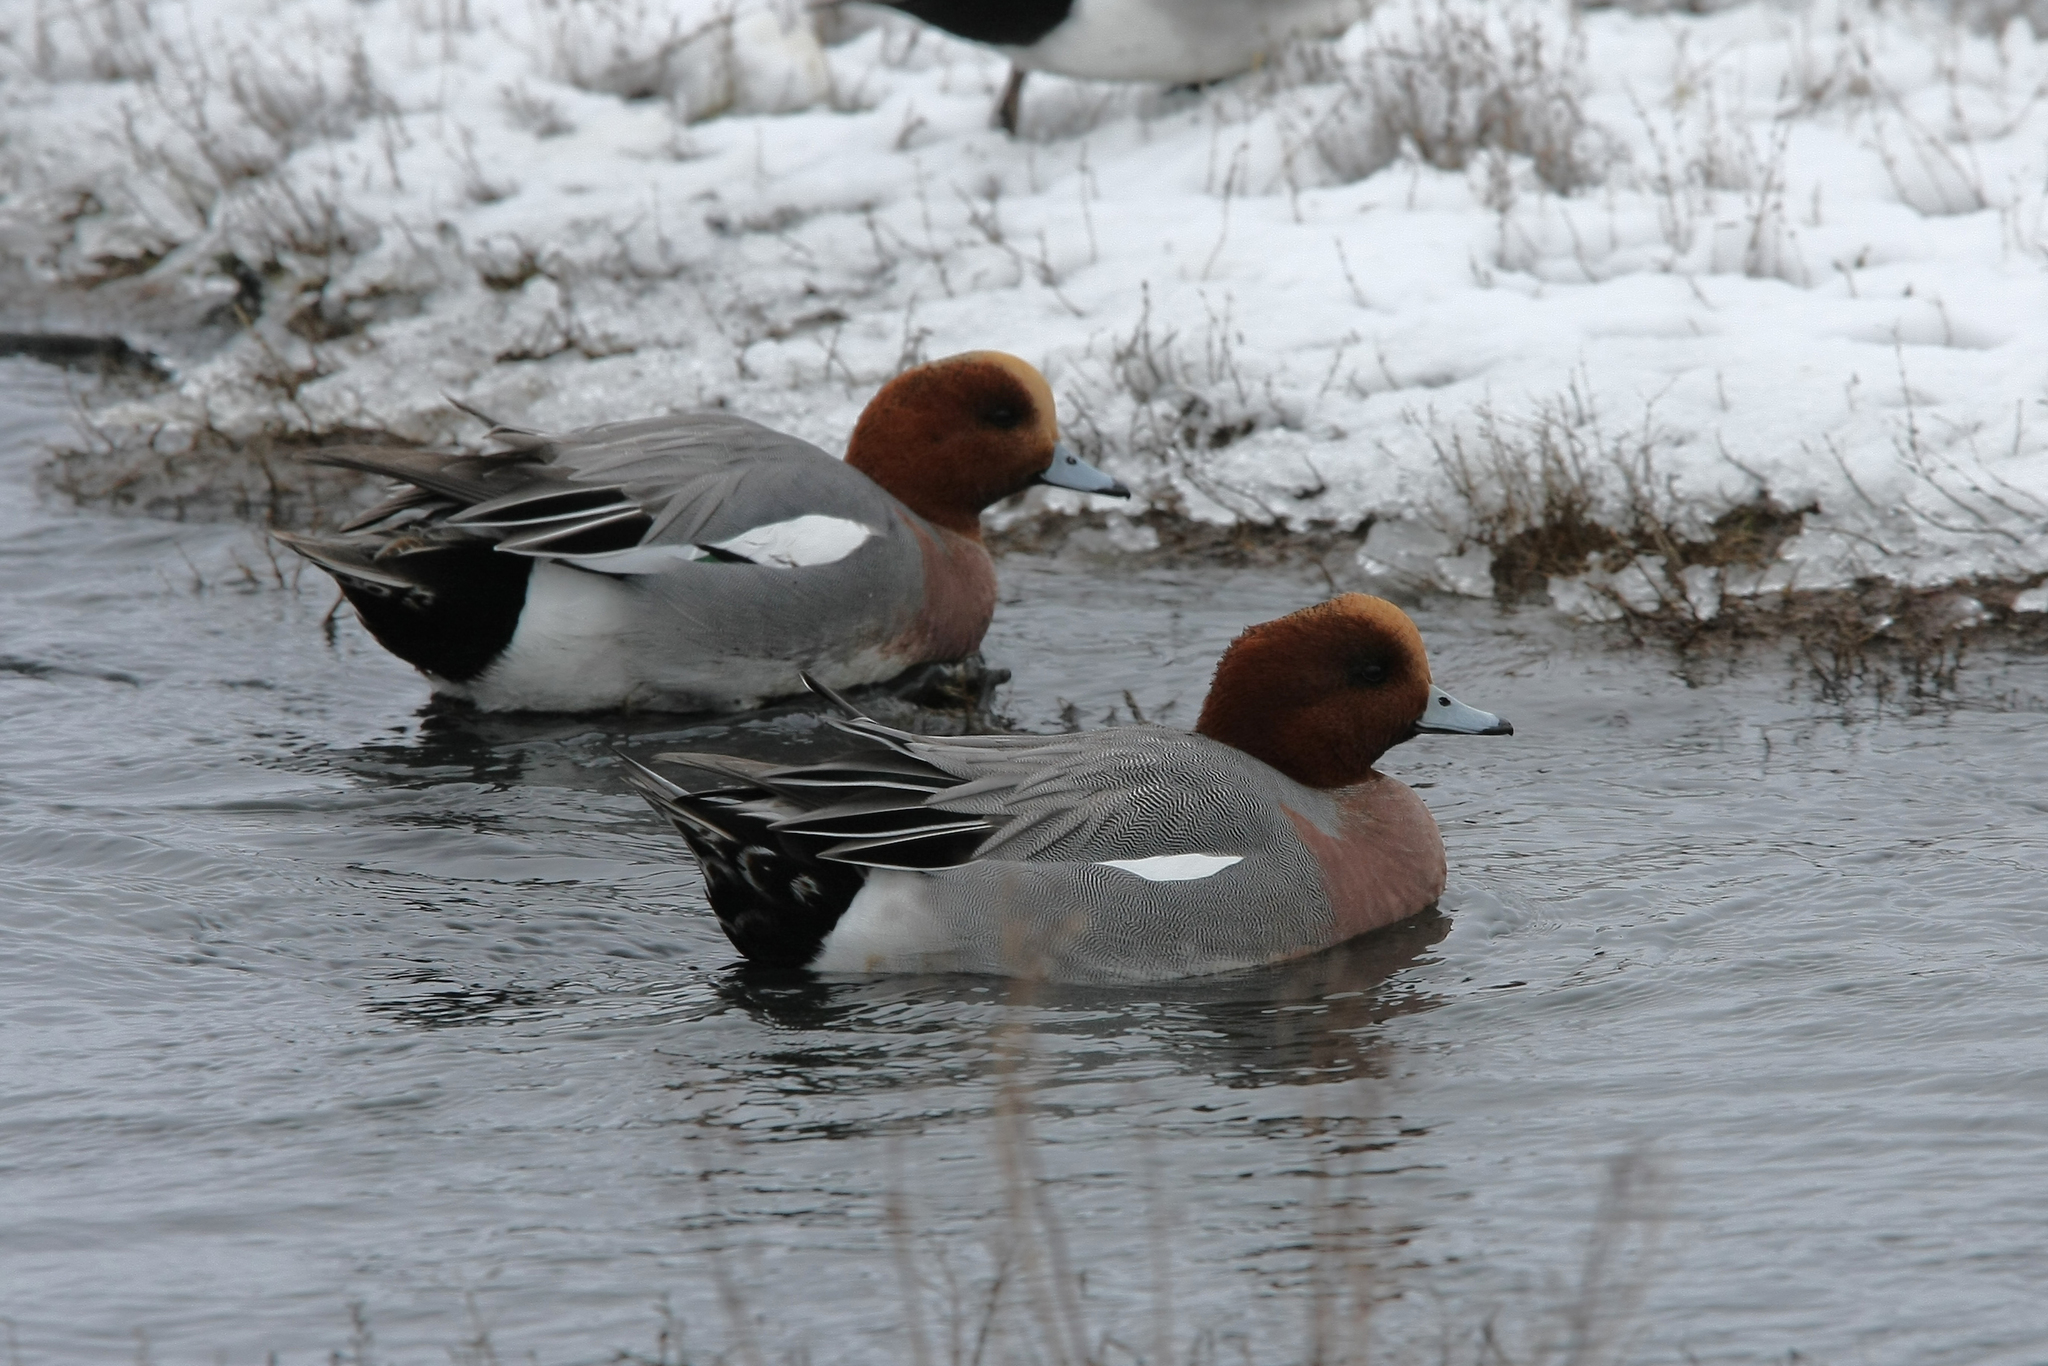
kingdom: Animalia
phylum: Chordata
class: Aves
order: Anseriformes
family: Anatidae
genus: Mareca
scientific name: Mareca penelope
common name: Eurasian wigeon
